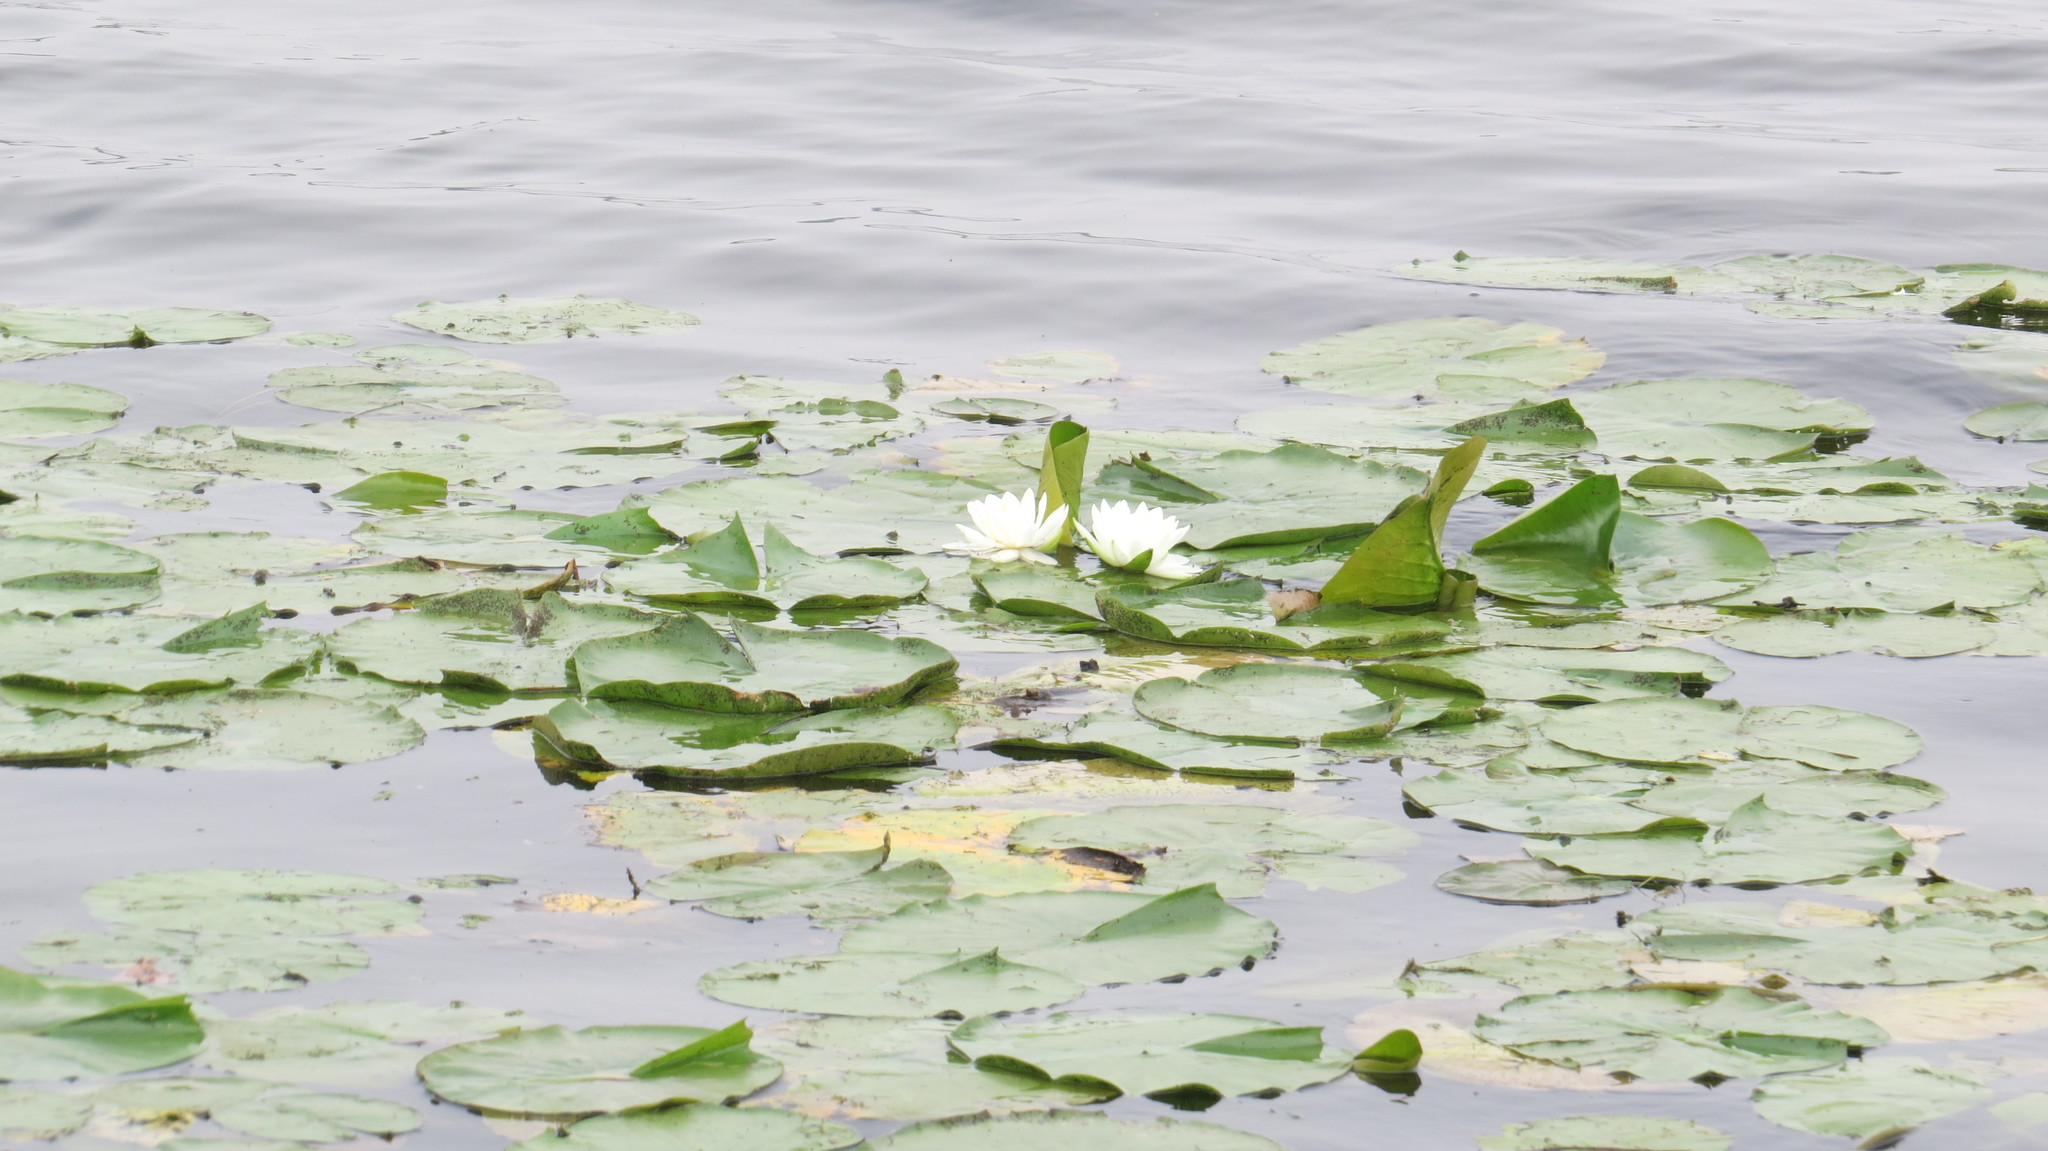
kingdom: Plantae
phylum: Tracheophyta
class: Magnoliopsida
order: Nymphaeales
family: Nymphaeaceae
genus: Nymphaea
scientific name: Nymphaea odorata
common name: Fragrant water-lily
